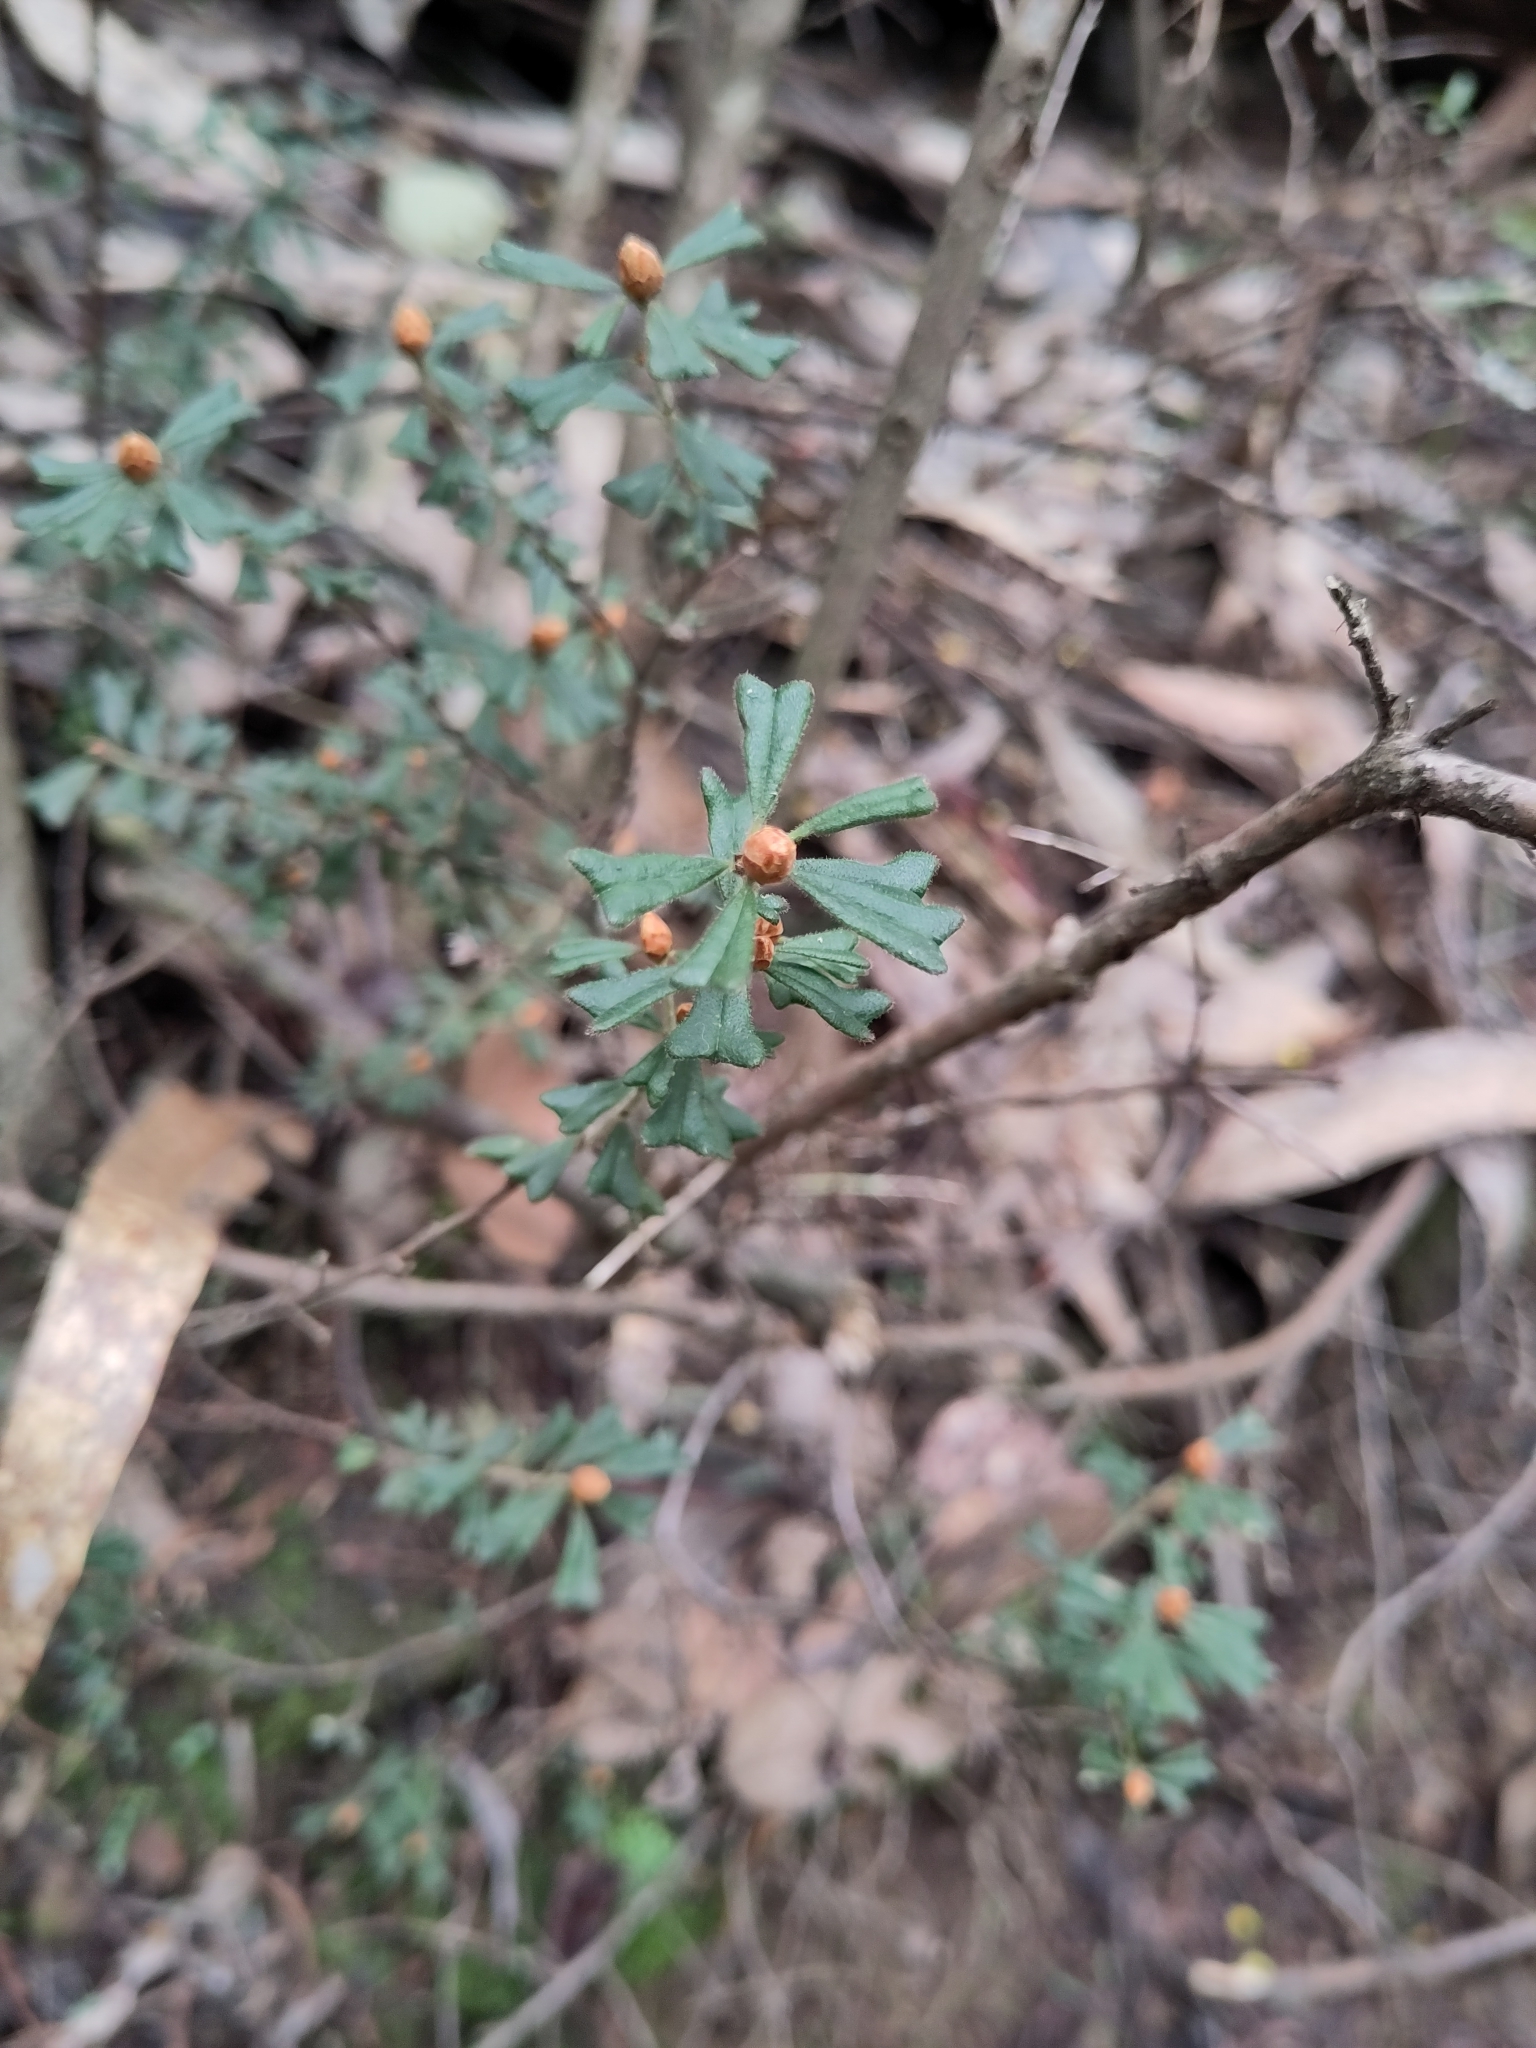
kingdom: Plantae
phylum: Tracheophyta
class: Magnoliopsida
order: Fabales
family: Fabaceae
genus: Pultenaea
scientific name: Pultenaea scabra
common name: Rough bush-pea
